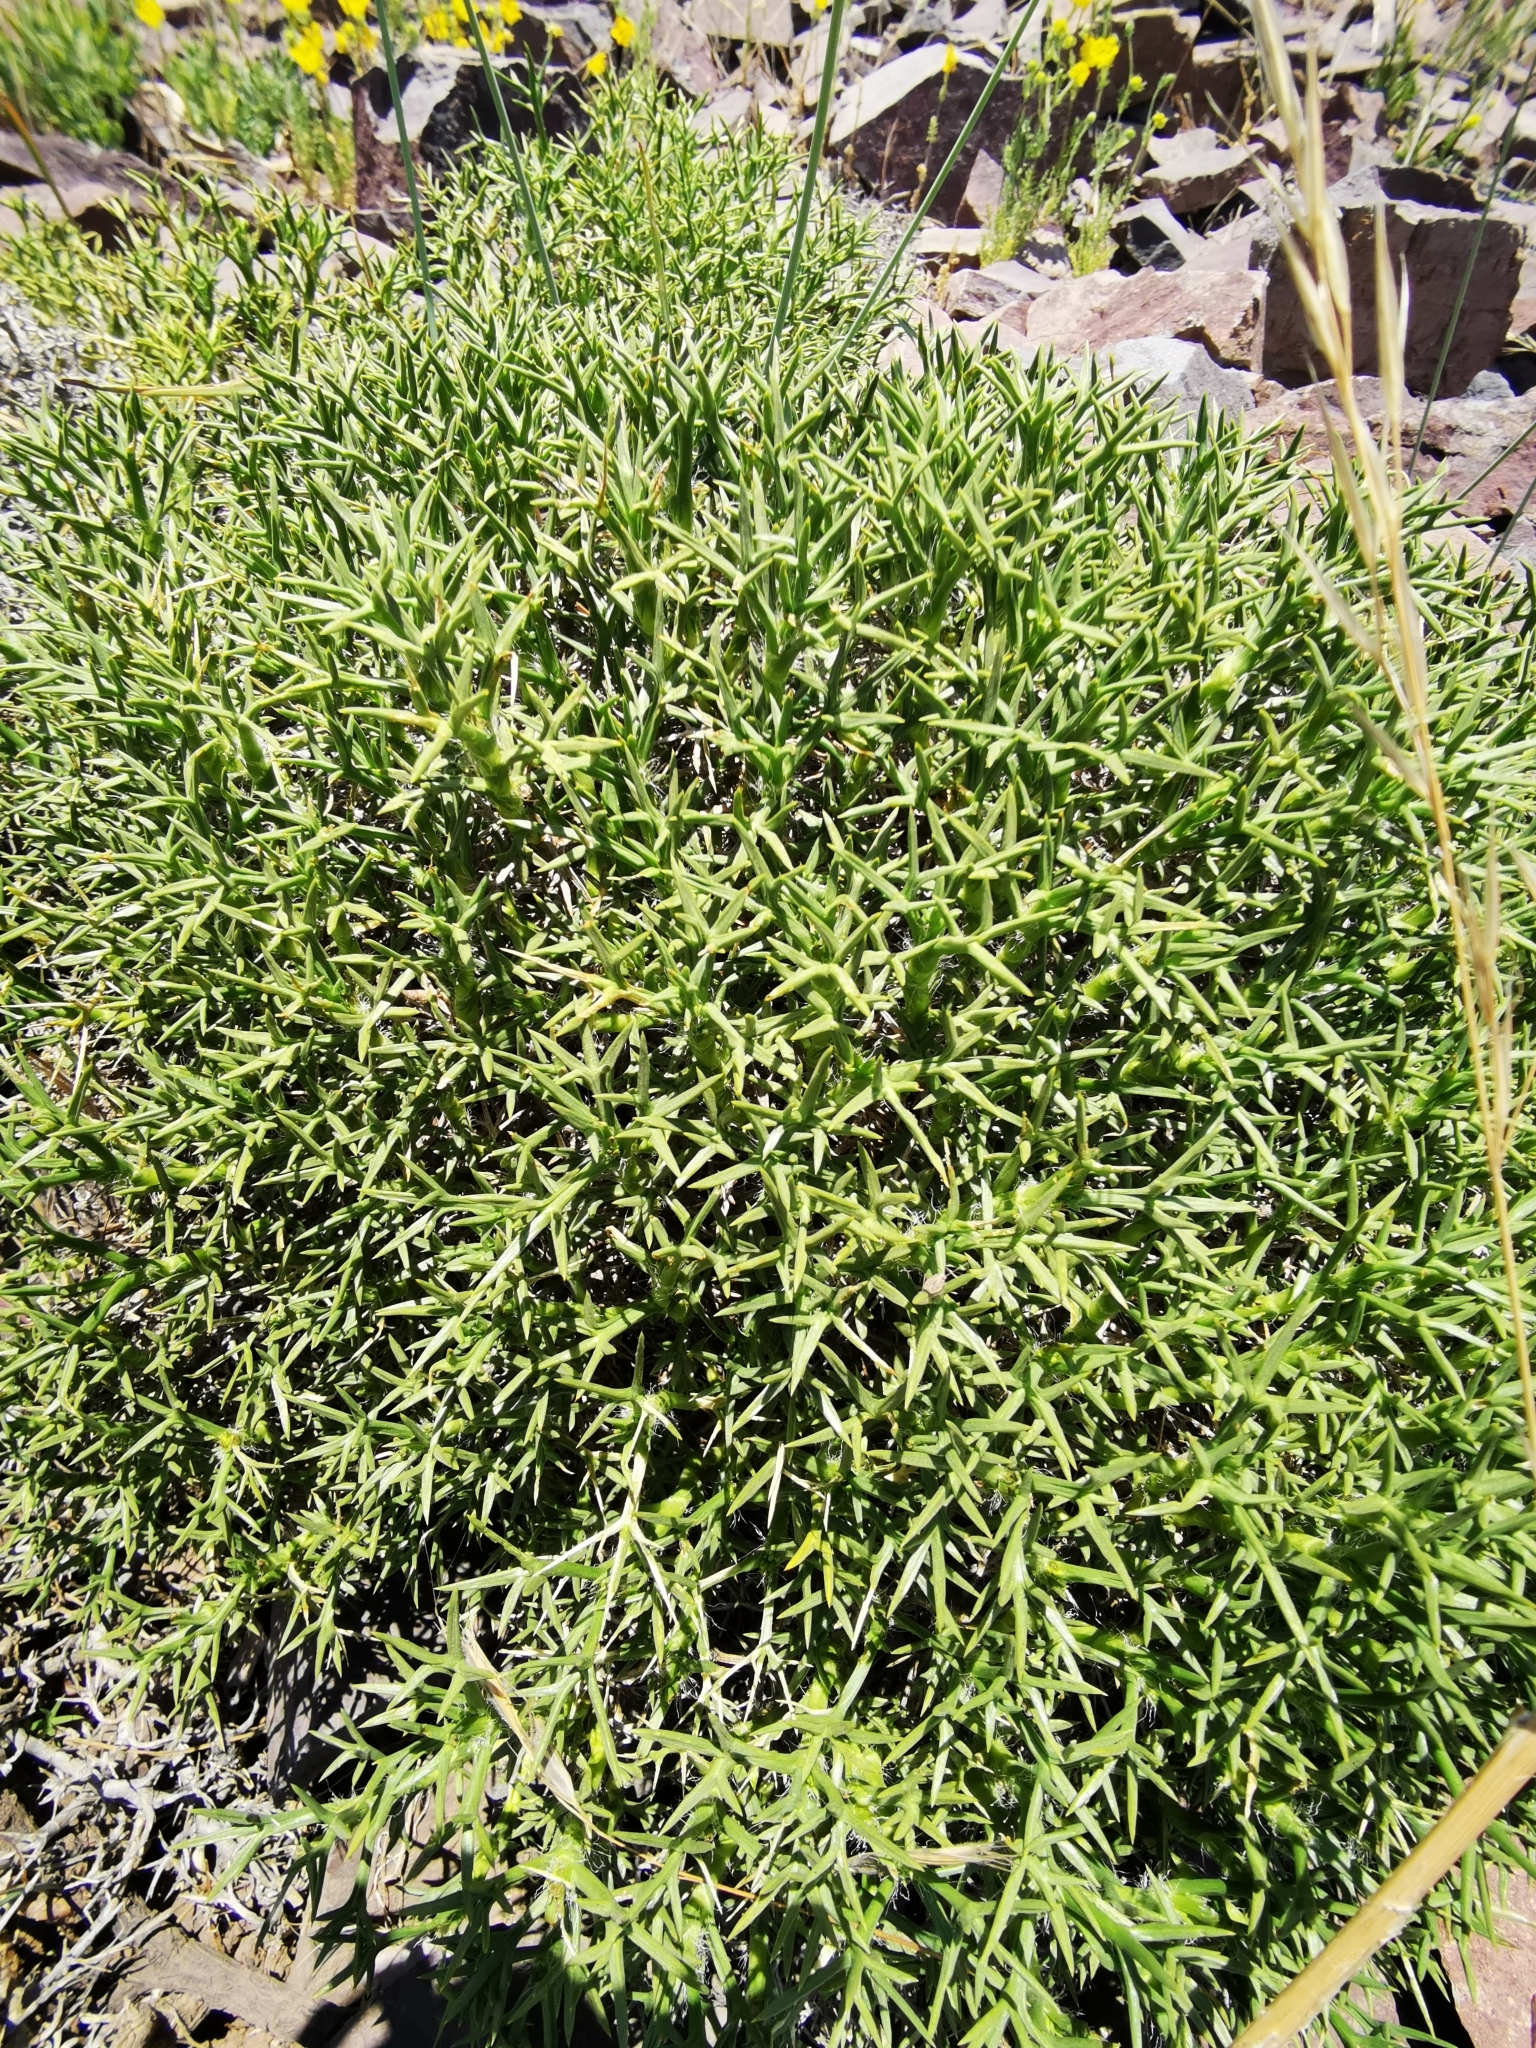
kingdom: Plantae
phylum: Tracheophyta
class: Magnoliopsida
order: Apiales
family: Apiaceae
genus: Azorella
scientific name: Azorella prolifera
